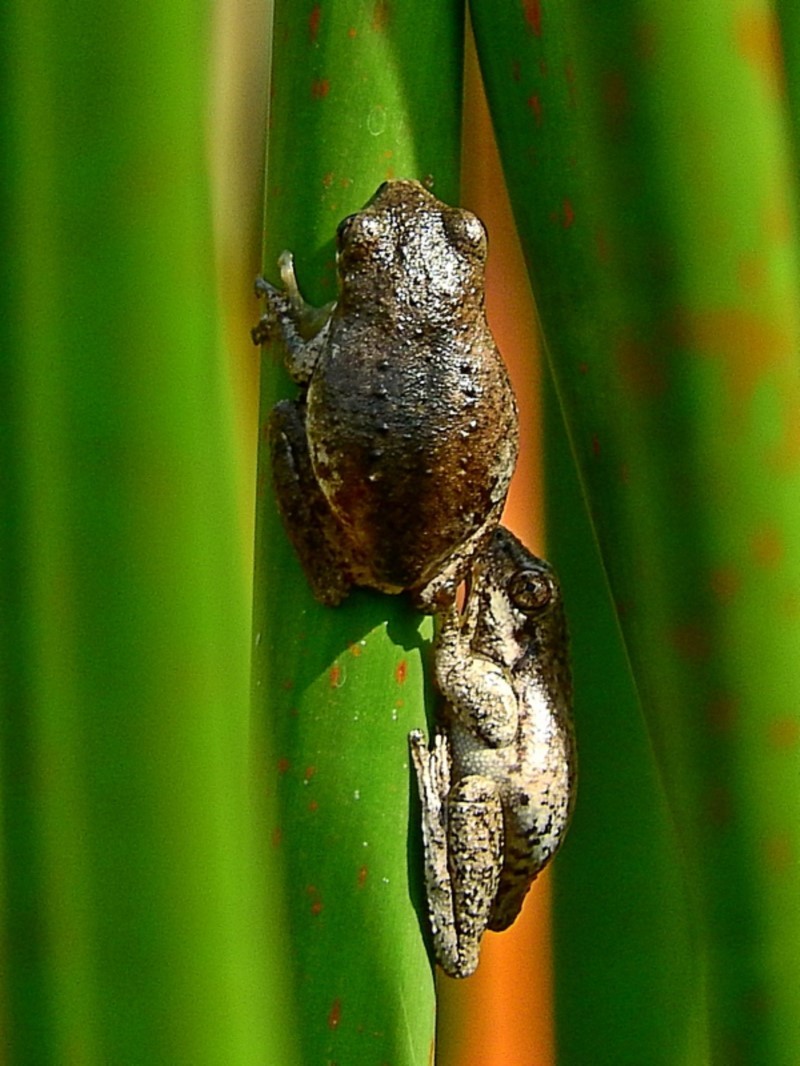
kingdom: Animalia
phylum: Chordata
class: Amphibia
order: Anura
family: Pelodryadidae
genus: Litoria
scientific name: Litoria peronii
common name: Emerald spotted treefrog
